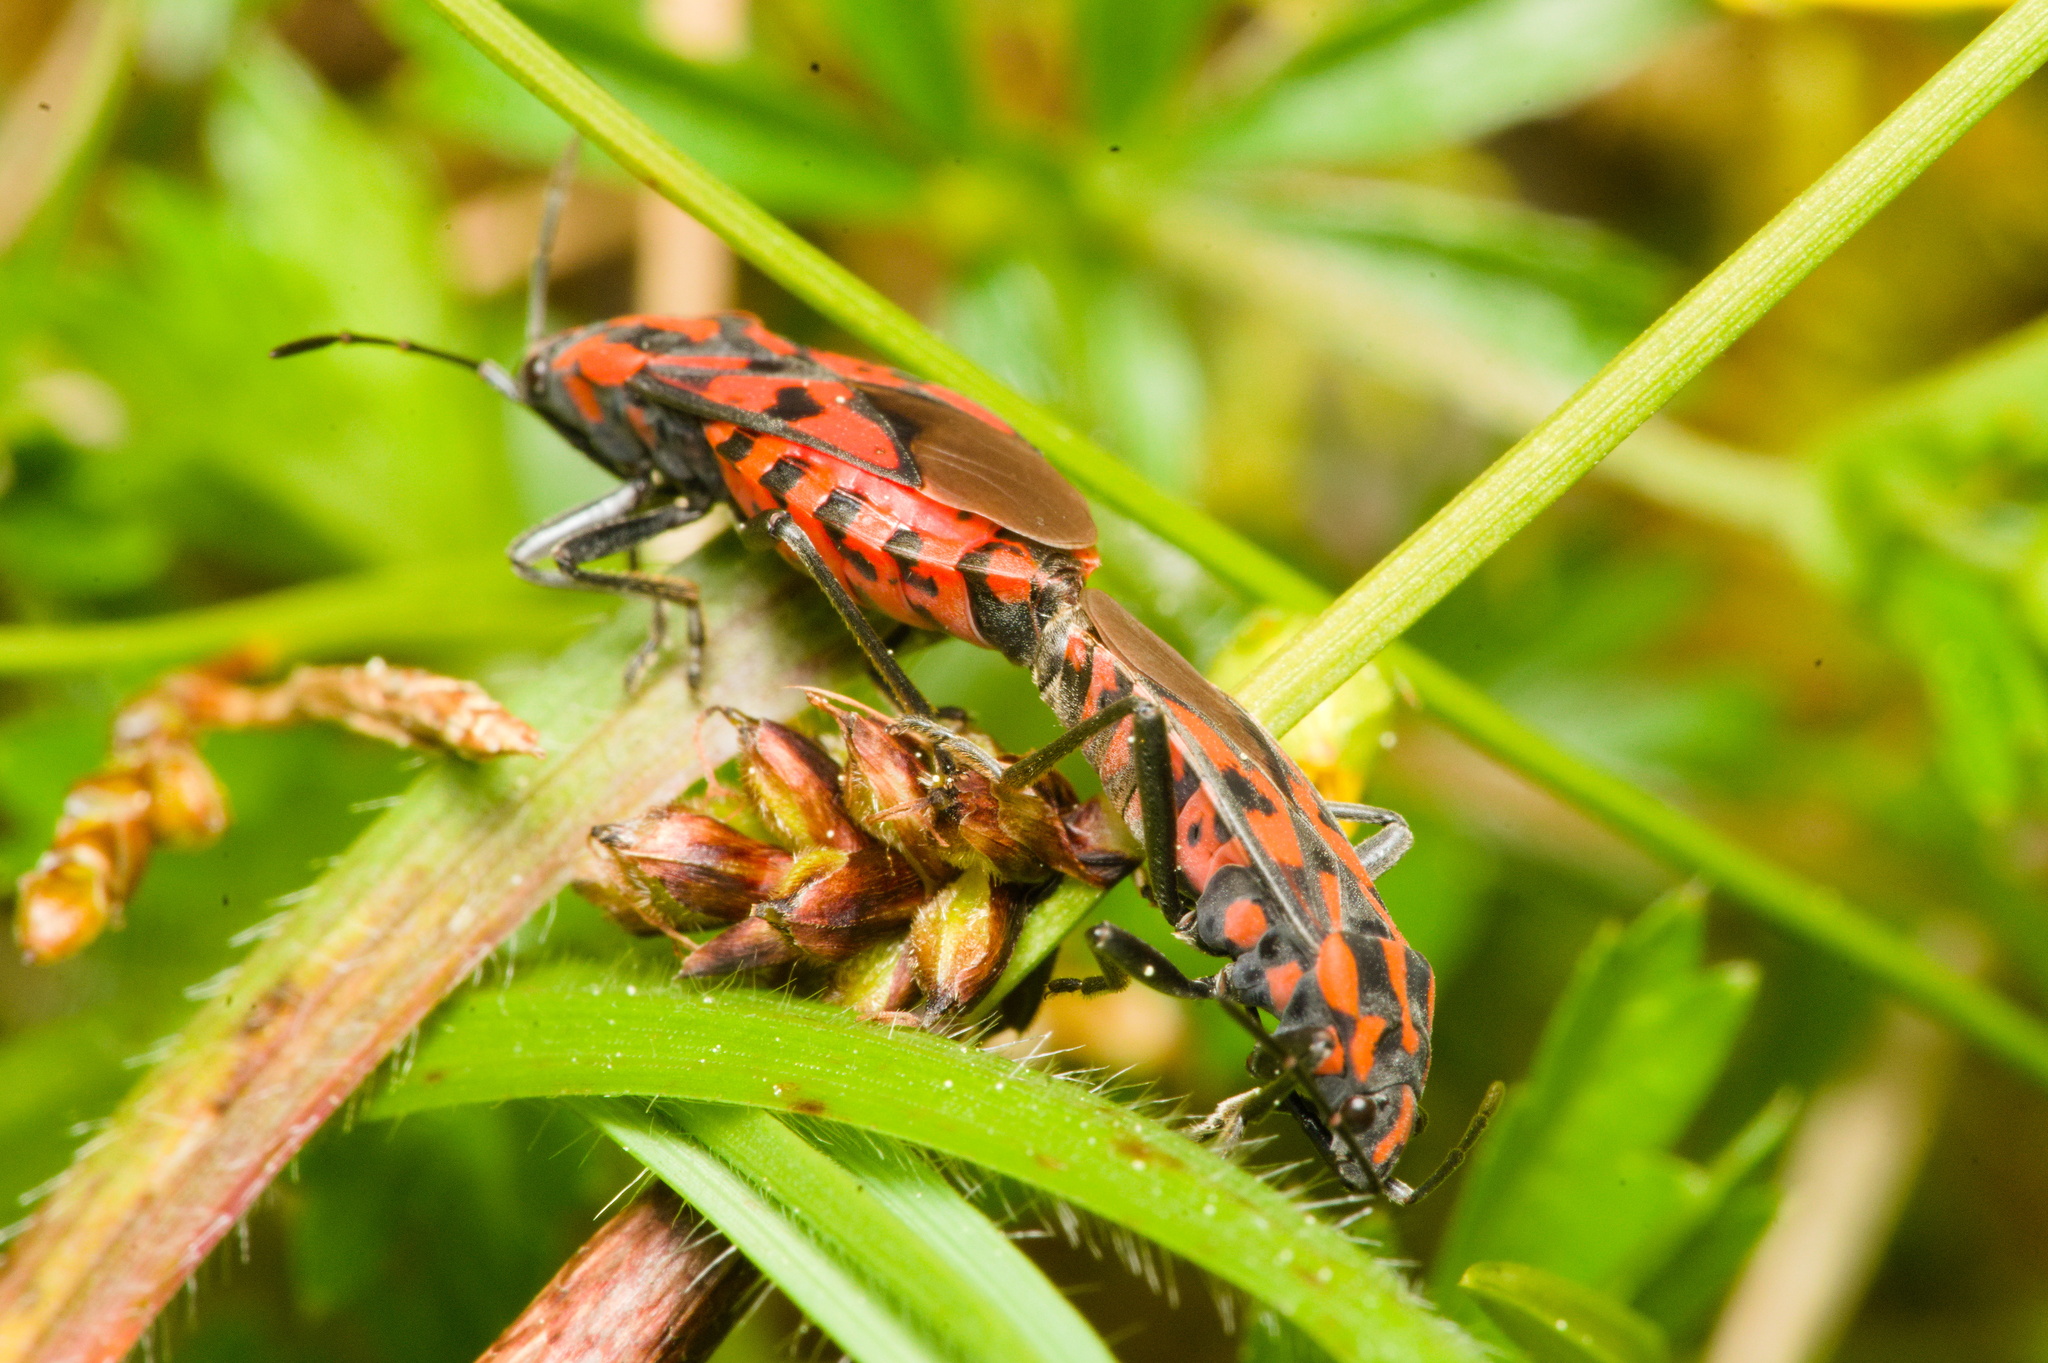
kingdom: Animalia
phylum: Arthropoda
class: Insecta
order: Hemiptera
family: Lygaeidae
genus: Spilostethus
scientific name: Spilostethus saxatilis
